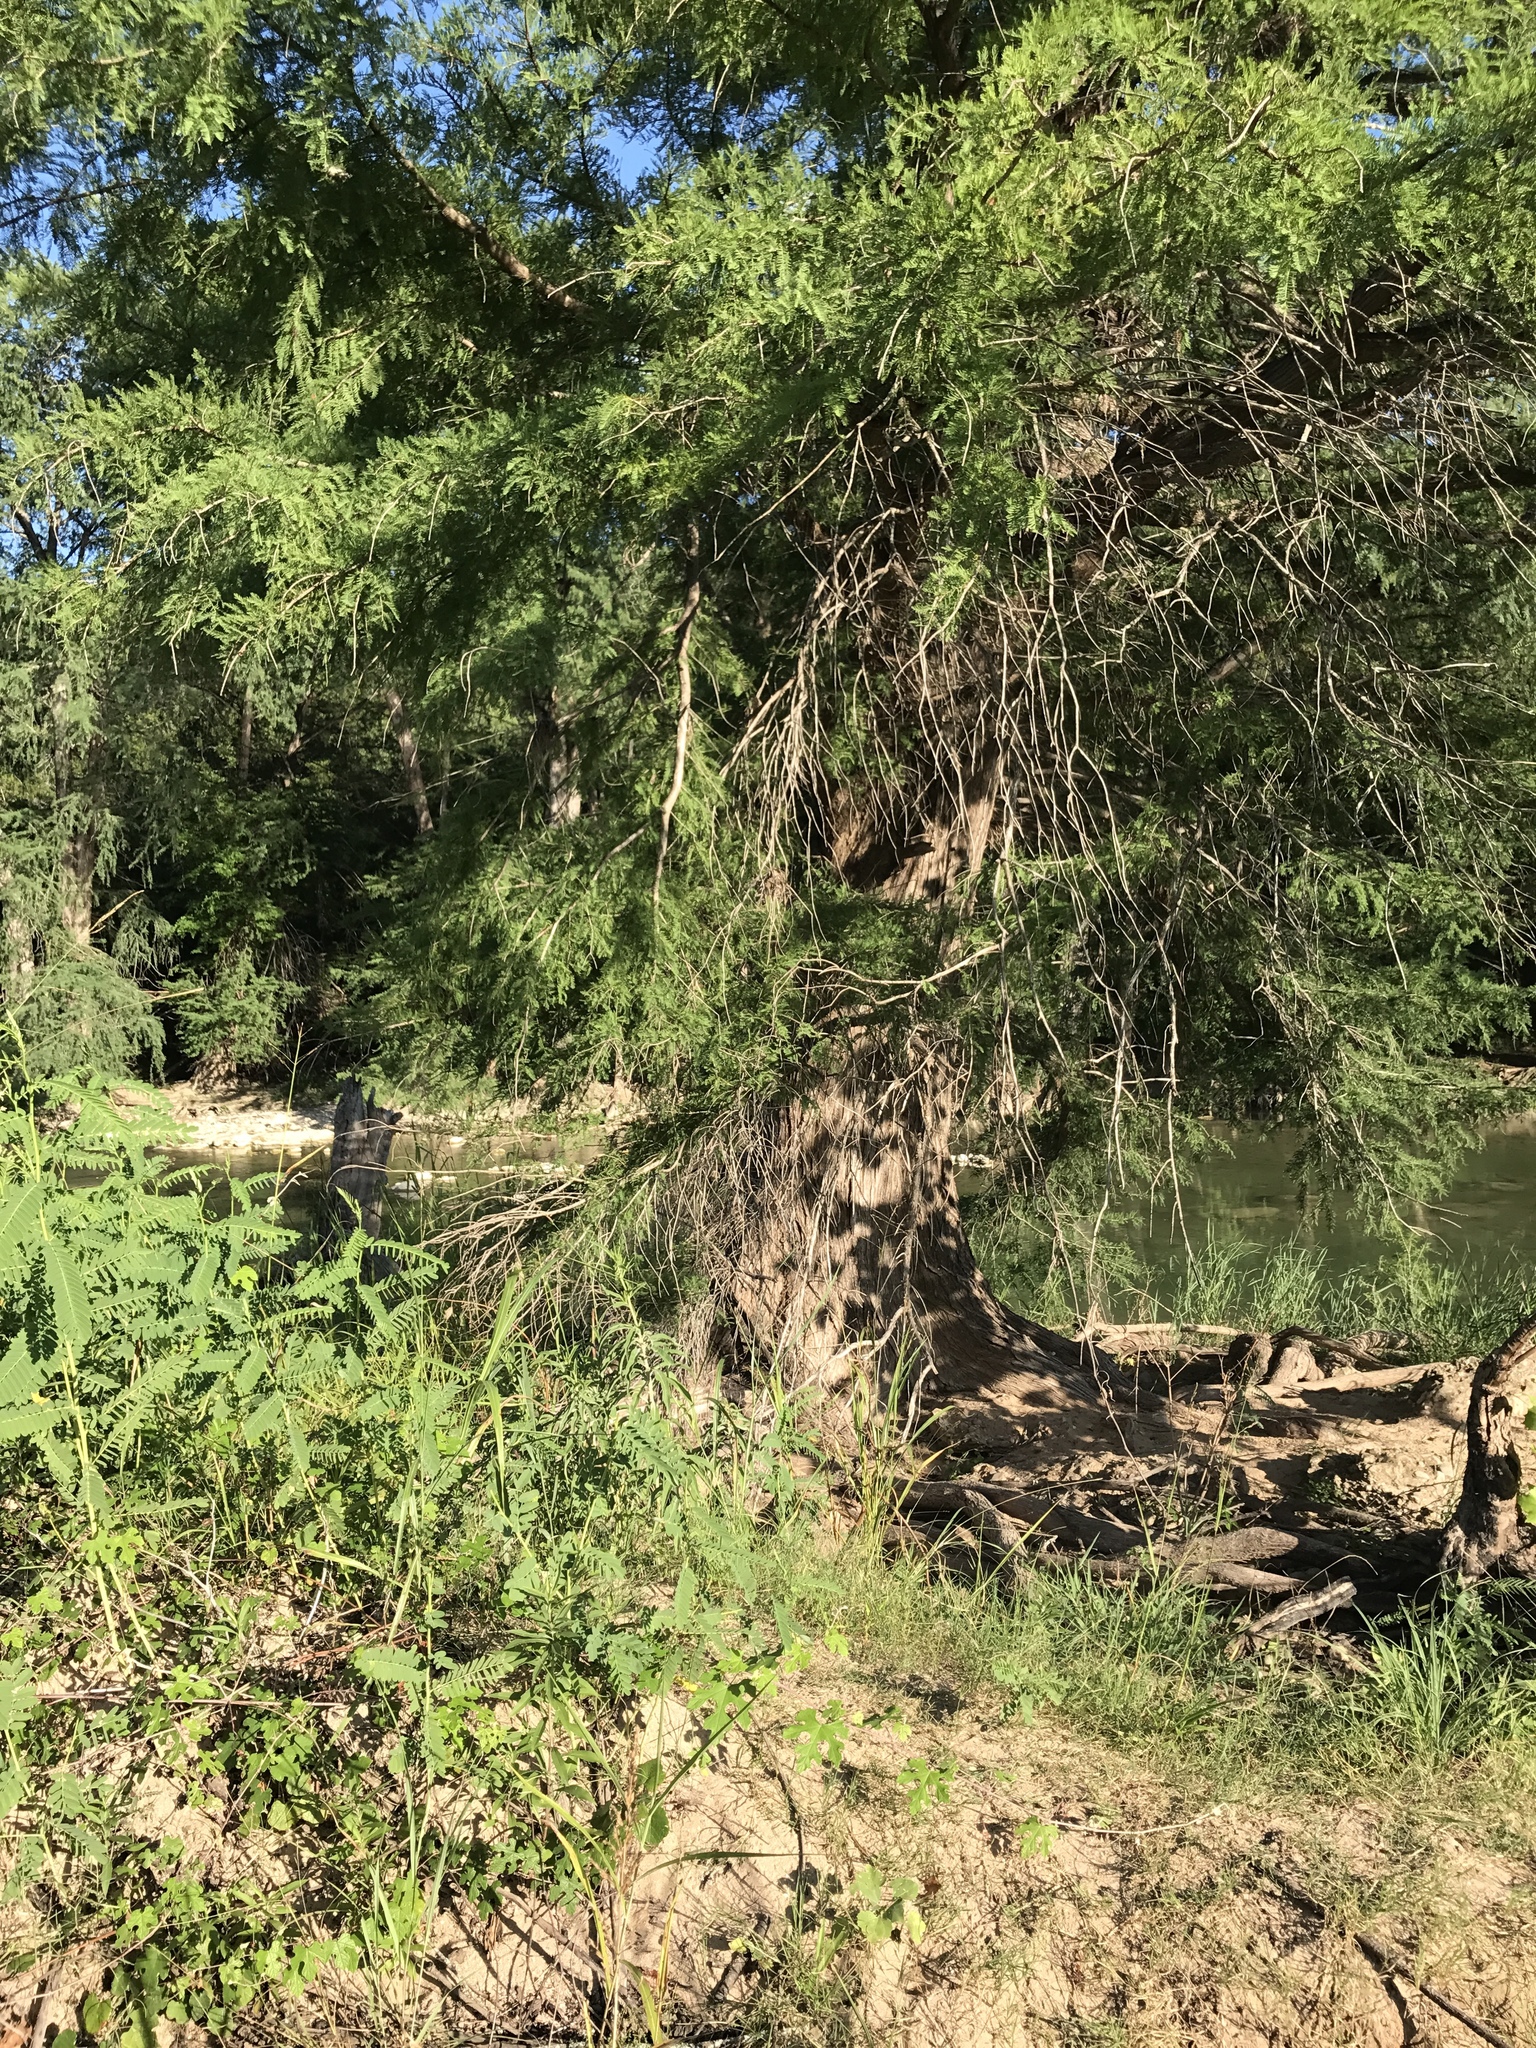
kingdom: Plantae
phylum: Tracheophyta
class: Pinopsida
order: Pinales
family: Cupressaceae
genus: Taxodium
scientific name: Taxodium distichum
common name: Bald cypress
